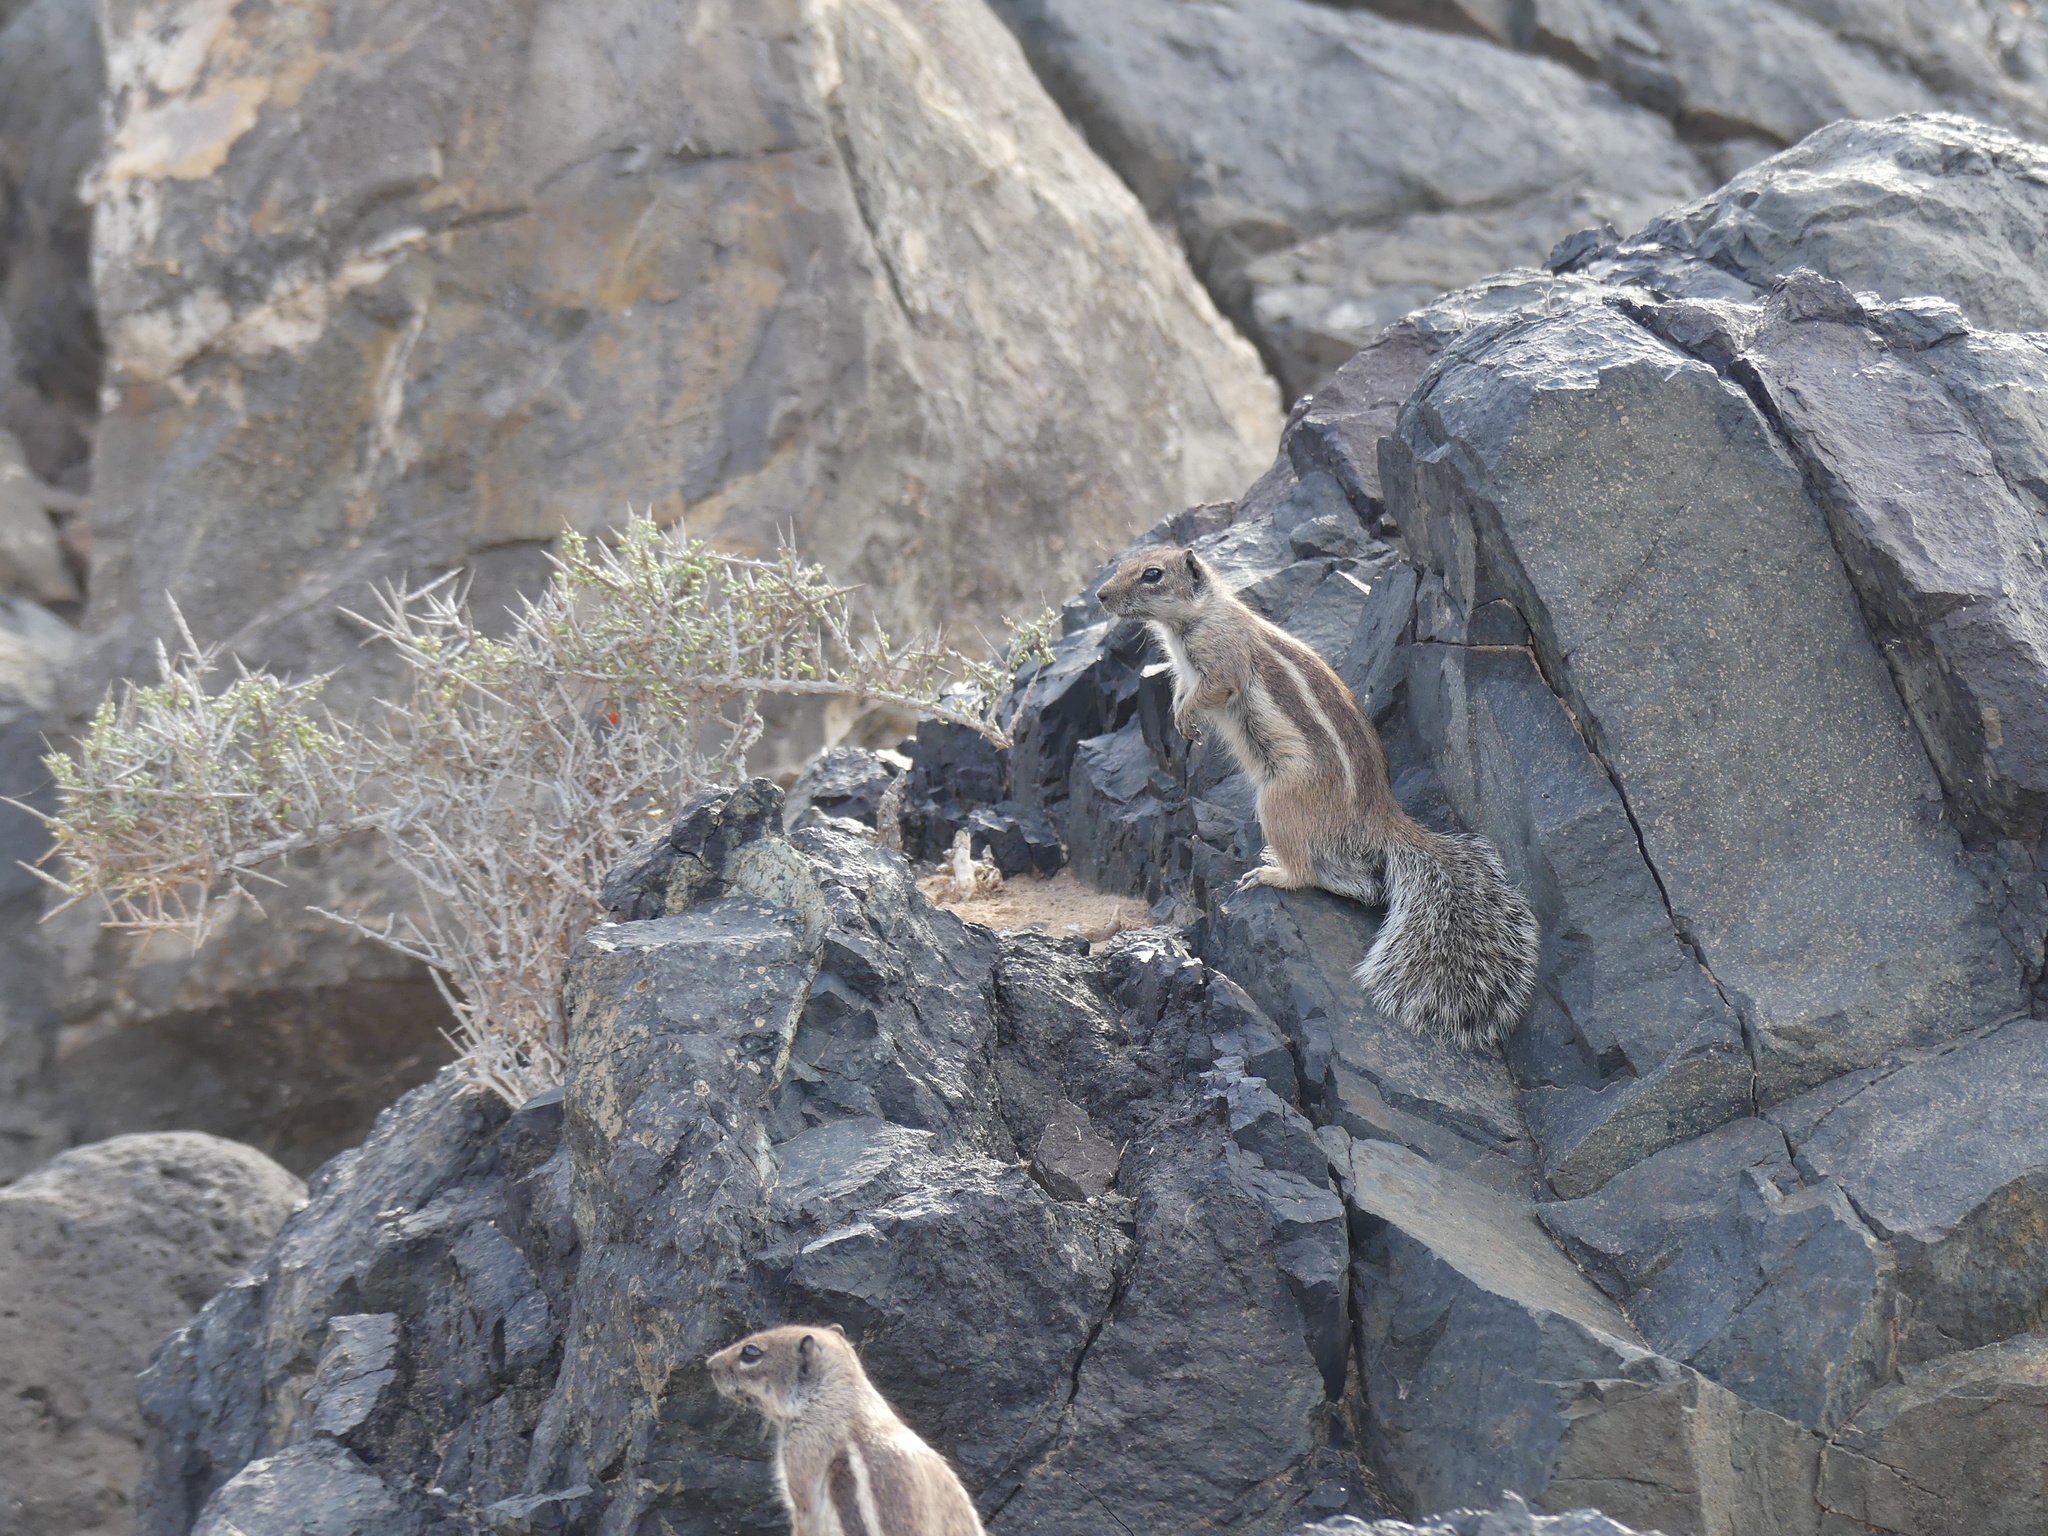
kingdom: Animalia
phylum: Chordata
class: Mammalia
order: Rodentia
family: Sciuridae
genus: Atlantoxerus
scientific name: Atlantoxerus getulus
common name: Barbary ground squirrel
